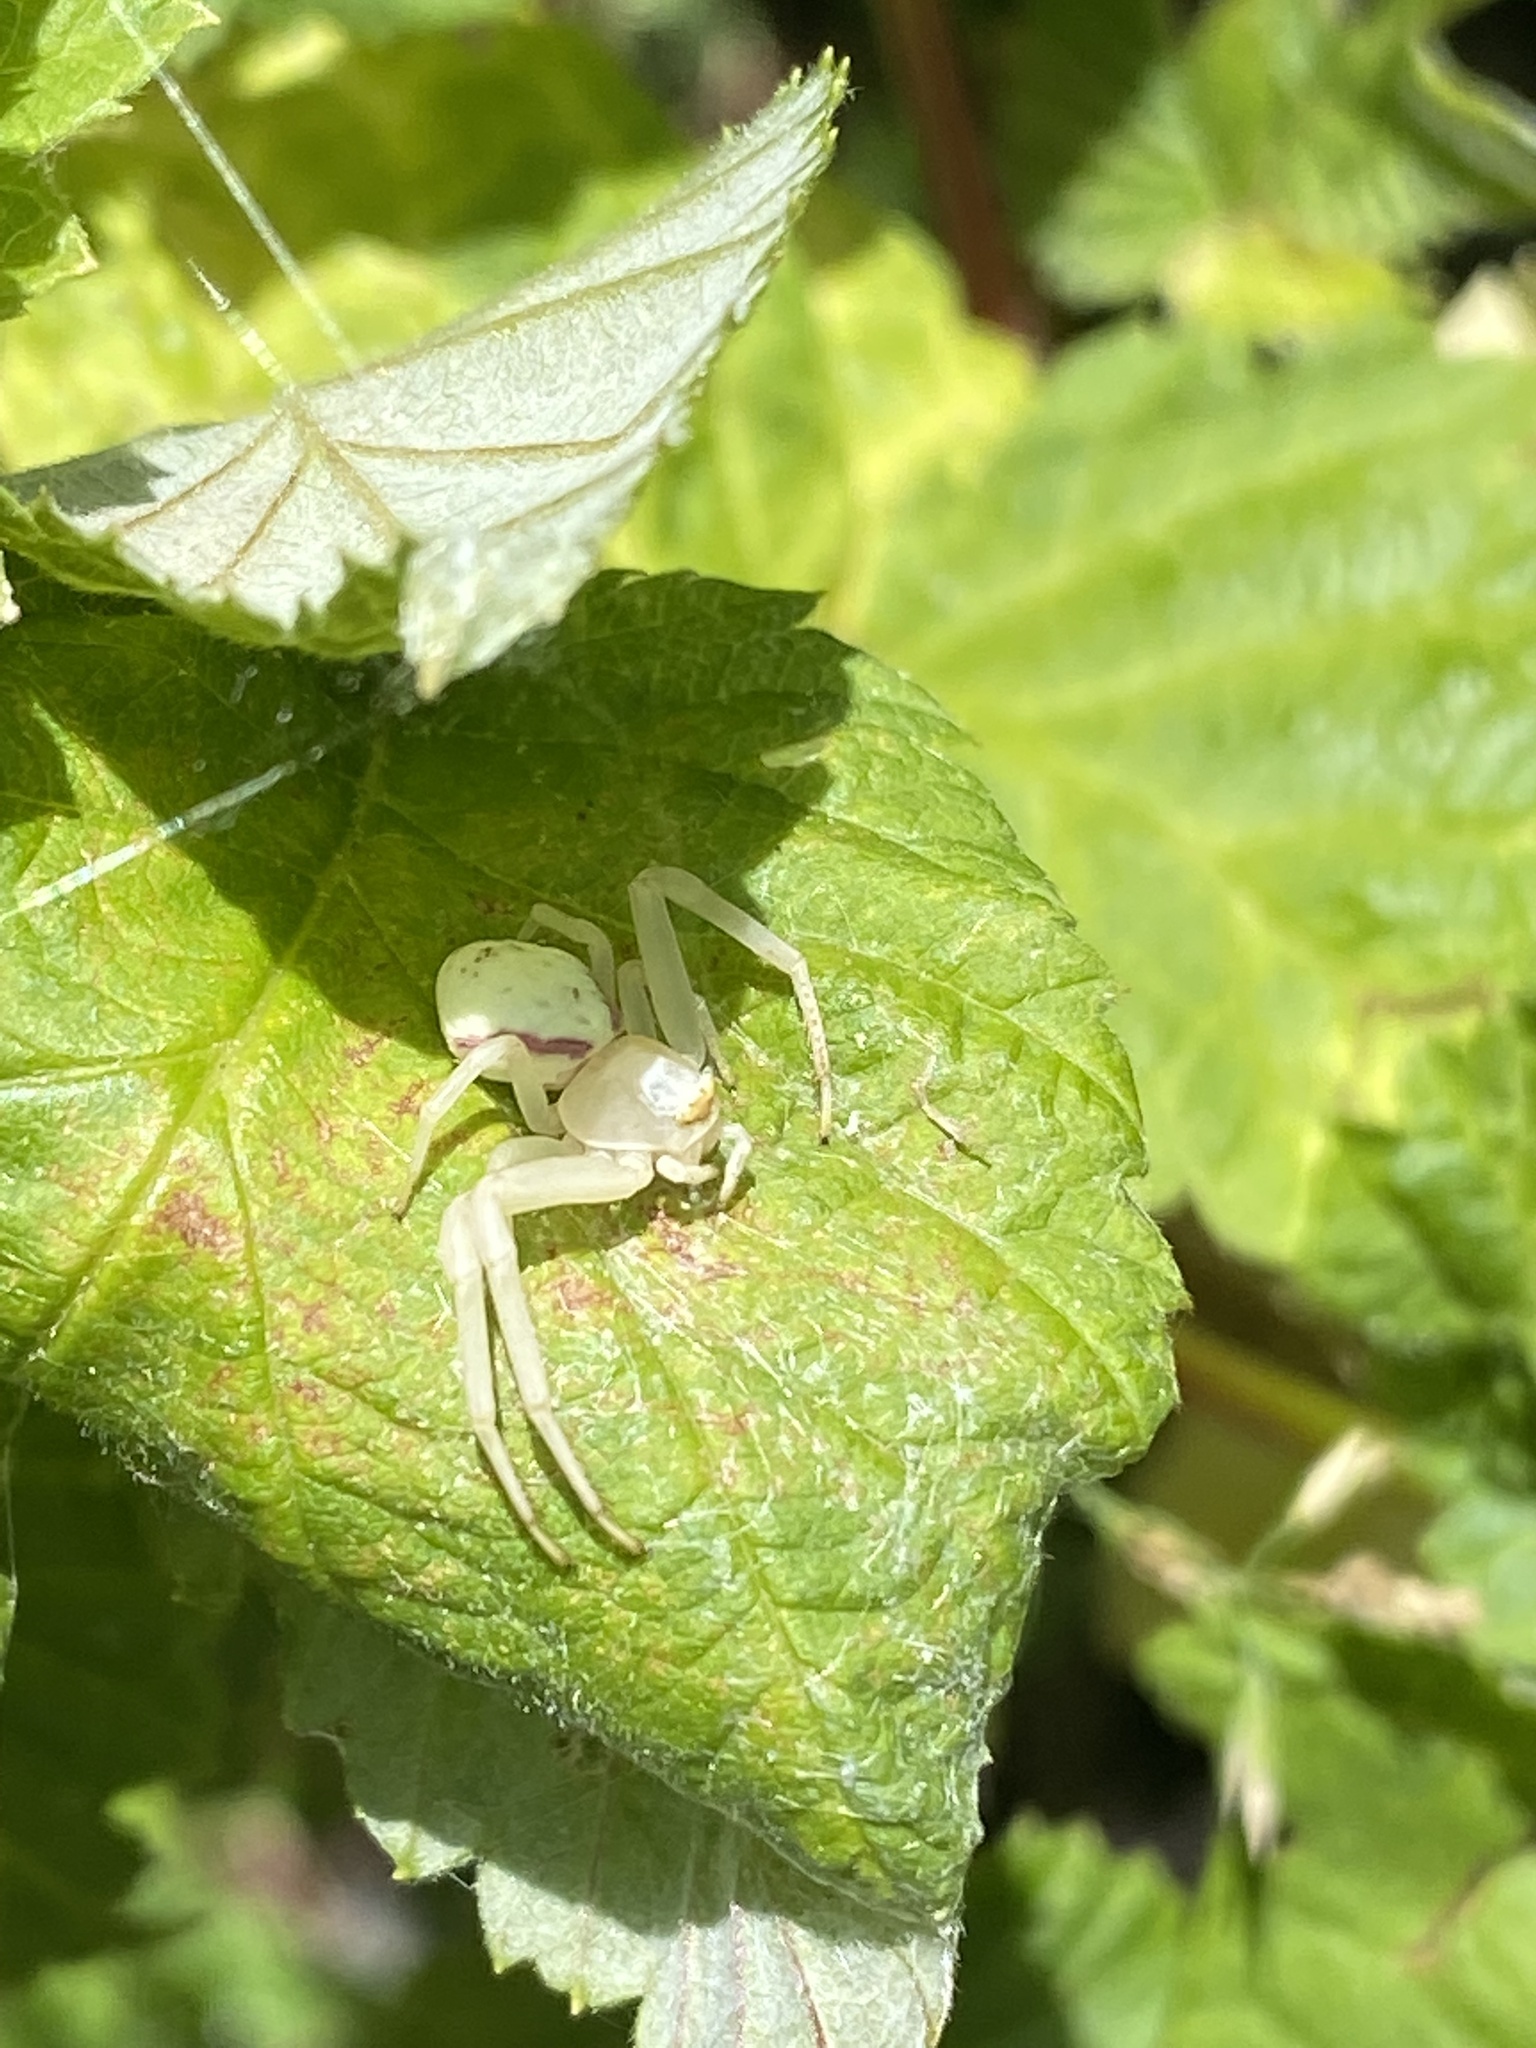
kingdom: Animalia
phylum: Arthropoda
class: Arachnida
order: Araneae
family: Thomisidae
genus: Misumena
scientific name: Misumena vatia
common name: Goldenrod crab spider
